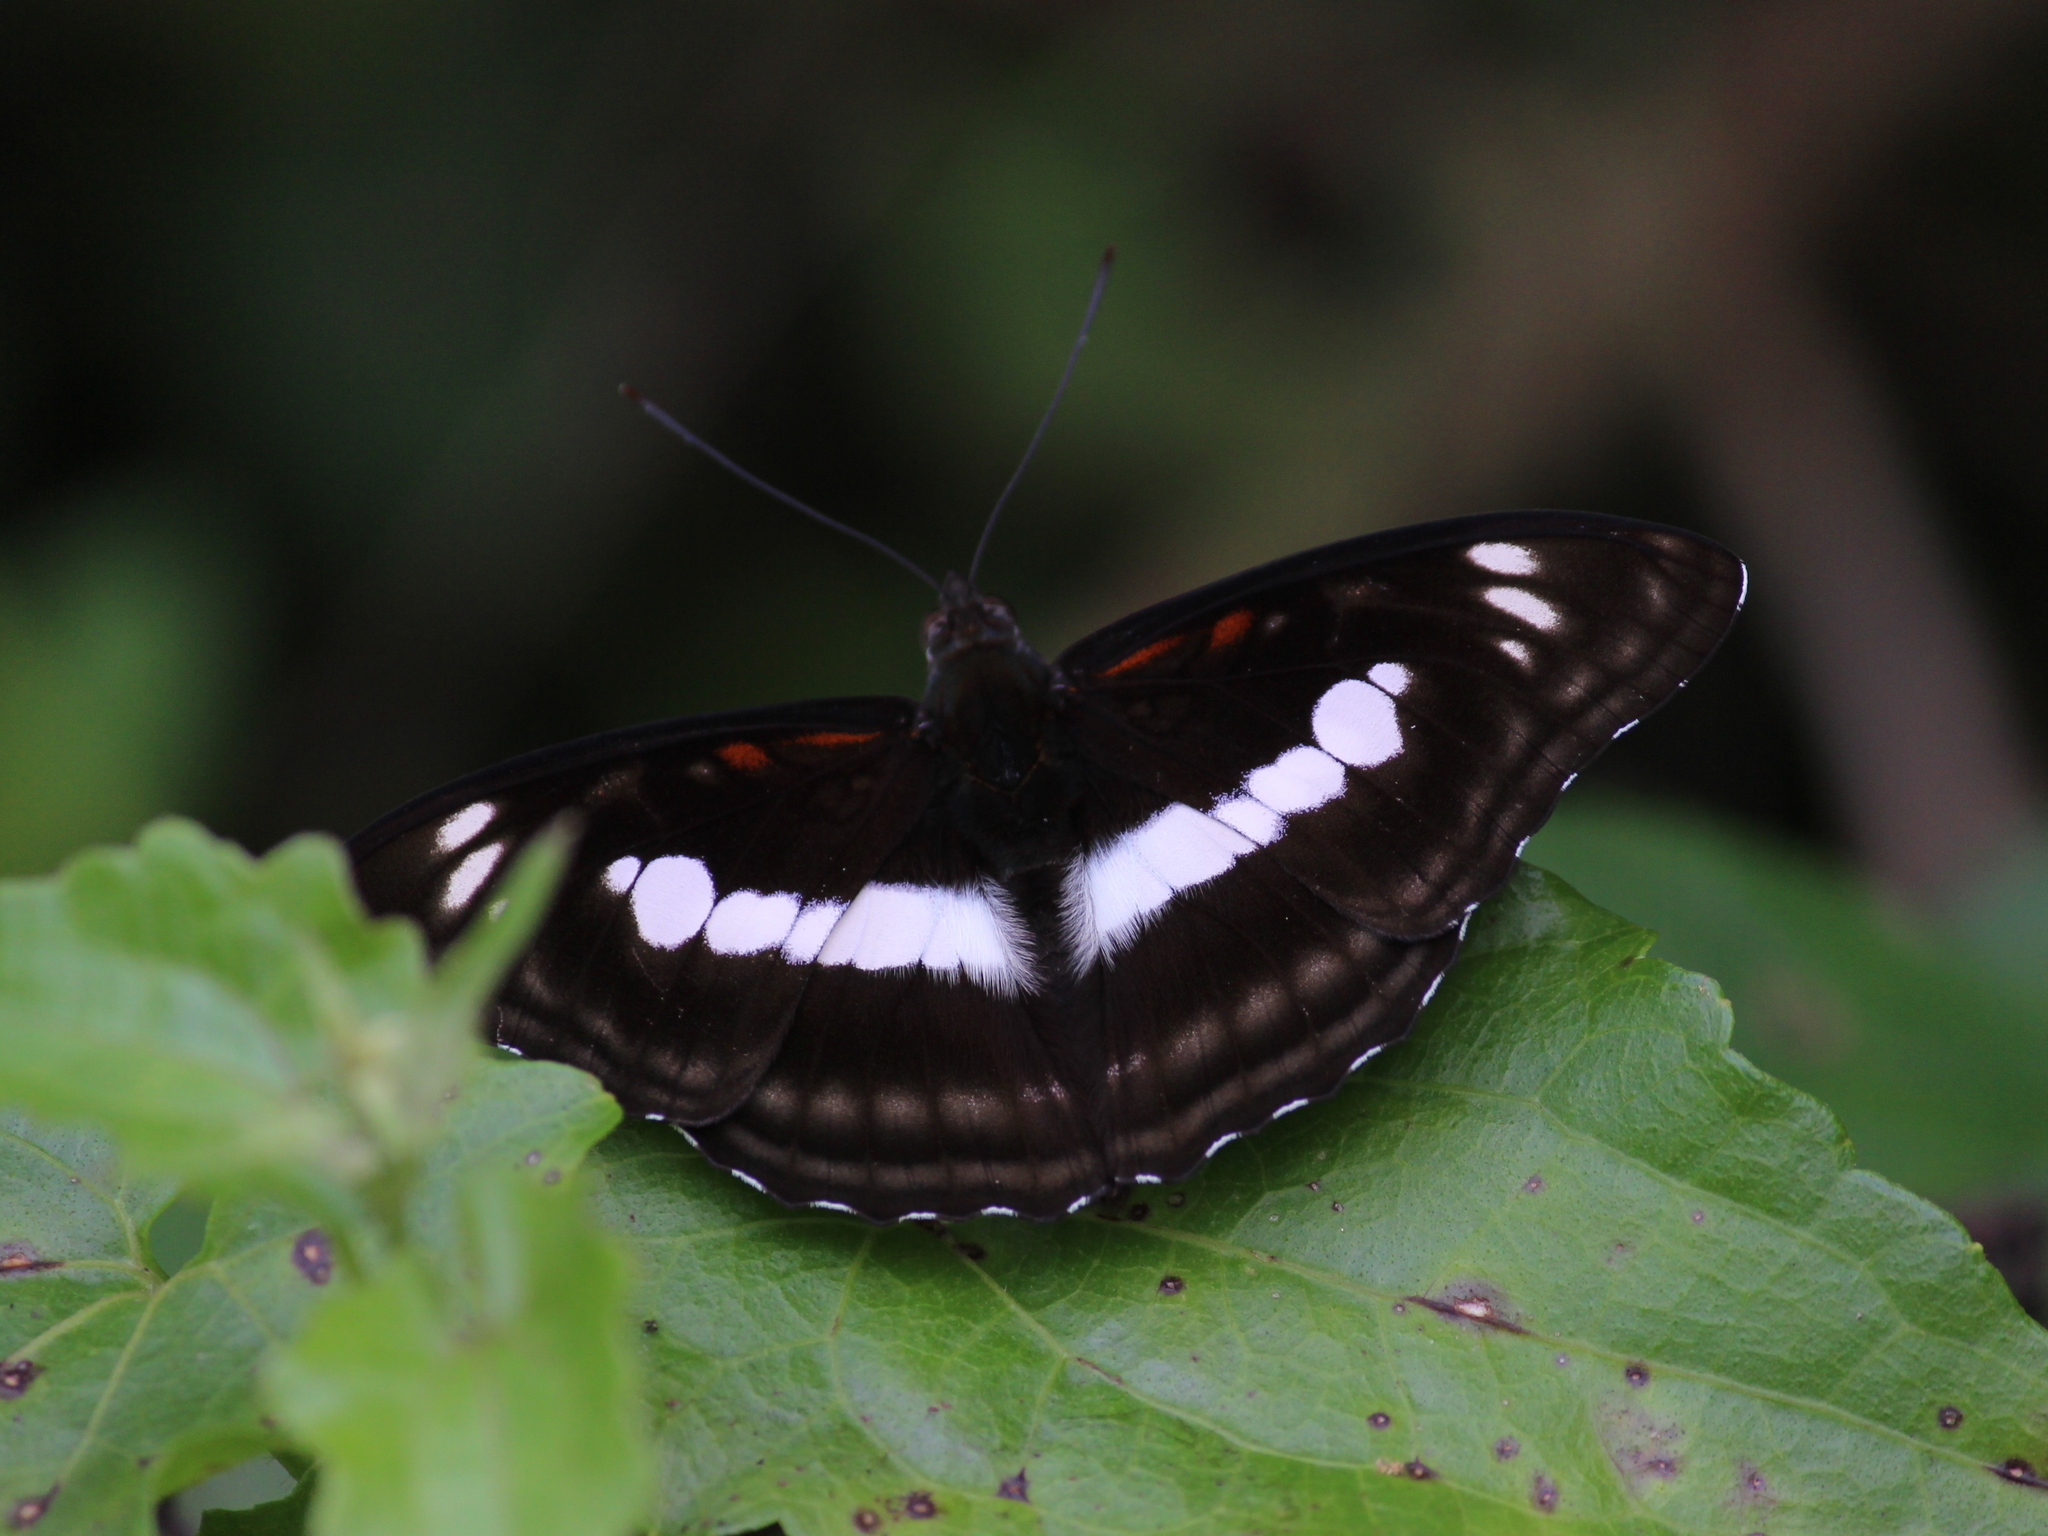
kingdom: Animalia
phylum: Arthropoda
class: Insecta
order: Lepidoptera
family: Nymphalidae
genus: Parathyma
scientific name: Parathyma selenophora
